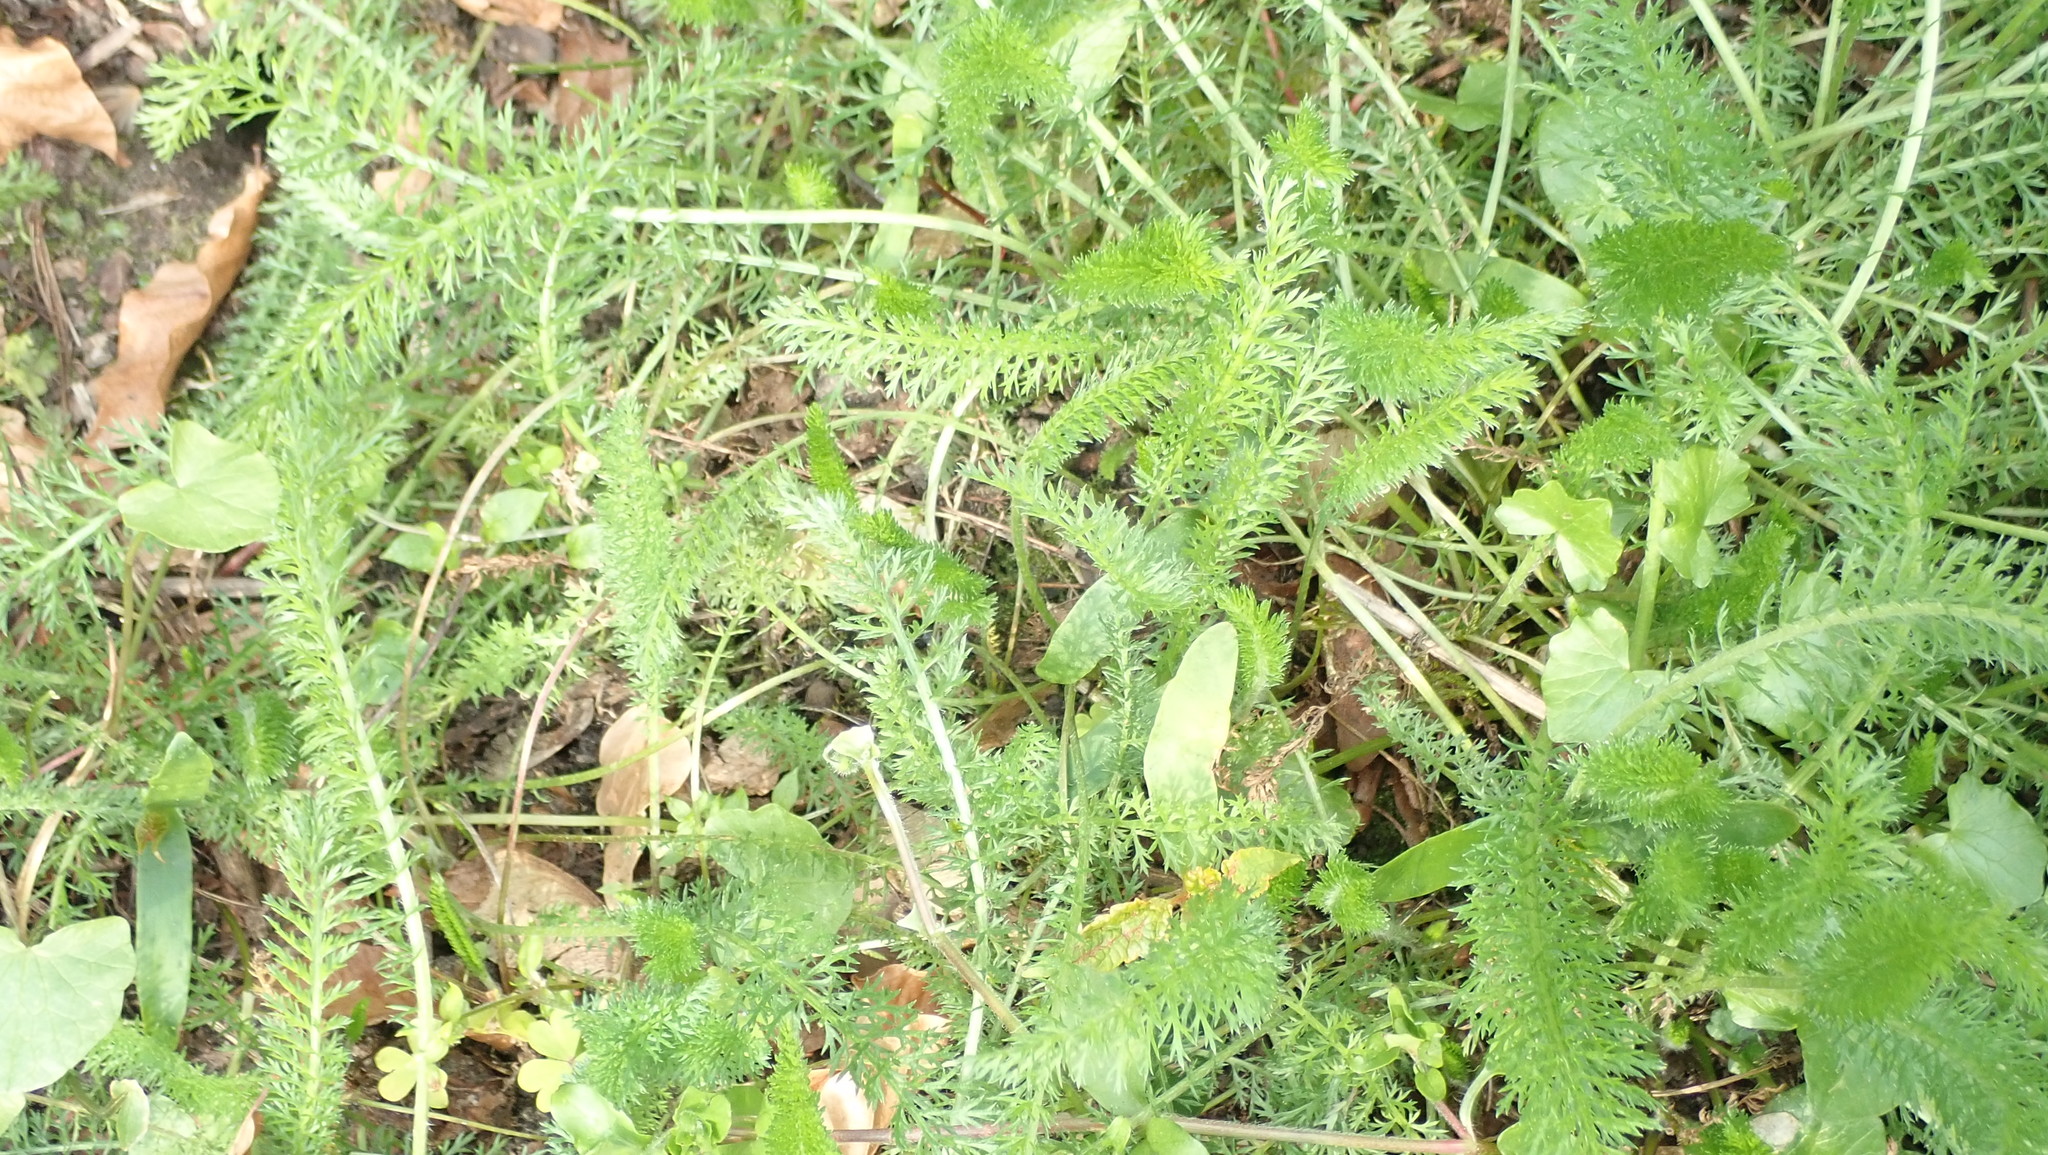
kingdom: Plantae
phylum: Tracheophyta
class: Magnoliopsida
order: Asterales
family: Asteraceae
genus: Achillea
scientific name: Achillea millefolium
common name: Yarrow
